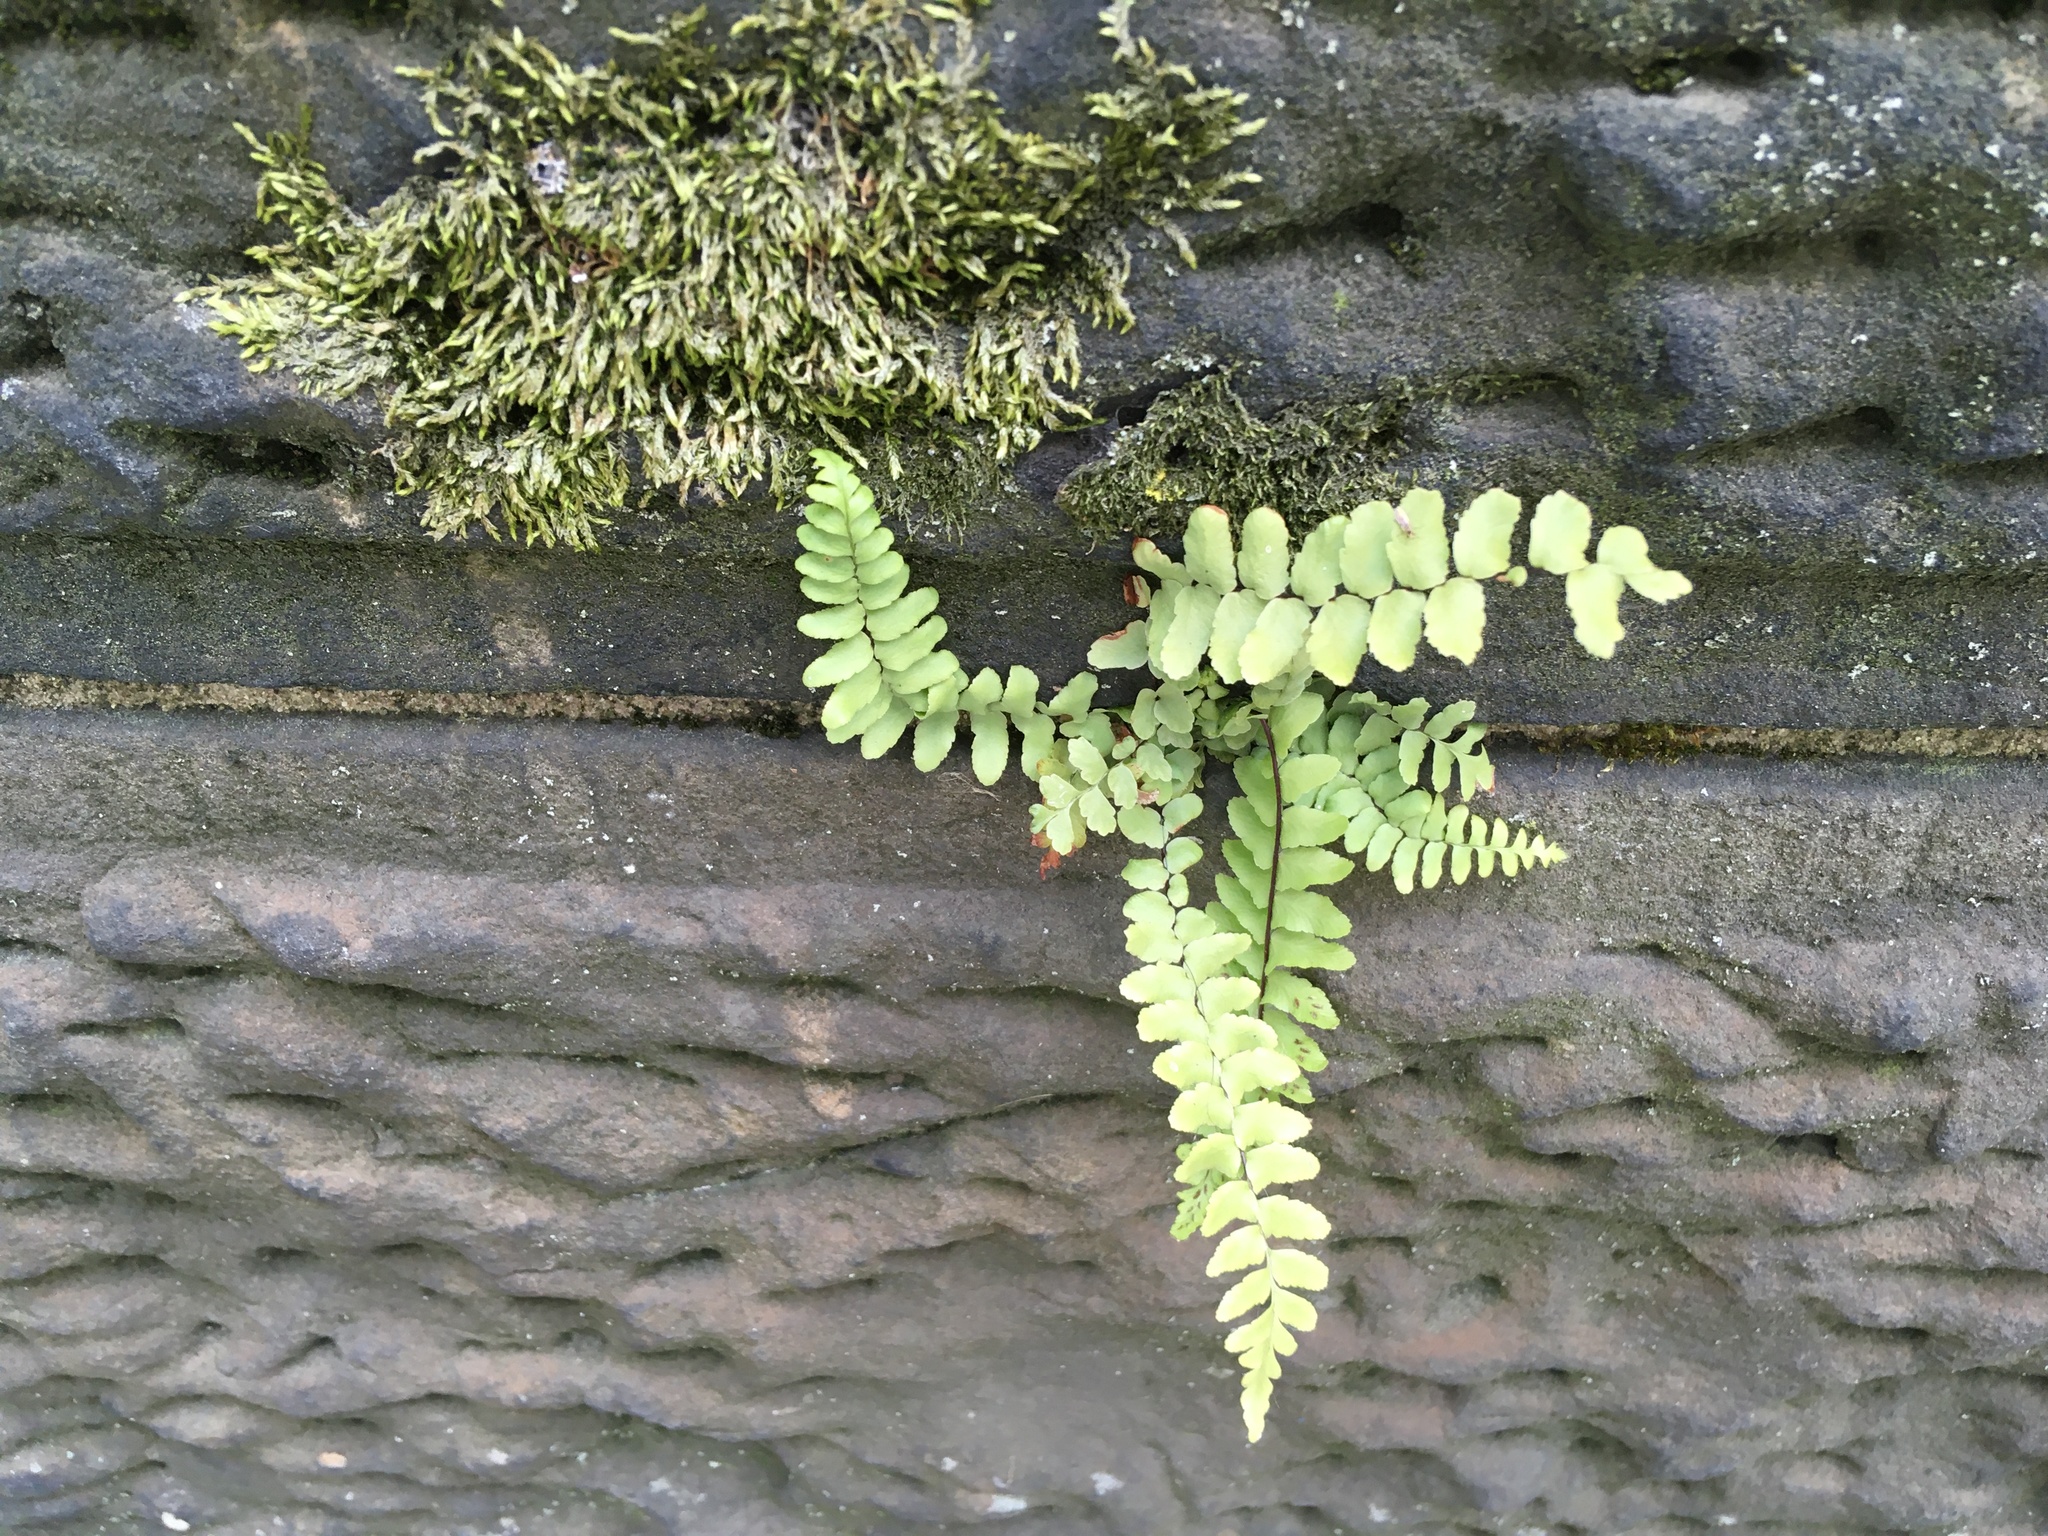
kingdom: Plantae
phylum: Tracheophyta
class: Polypodiopsida
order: Polypodiales
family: Aspleniaceae
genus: Asplenium
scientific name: Asplenium platyneuron
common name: Ebony spleenwort
